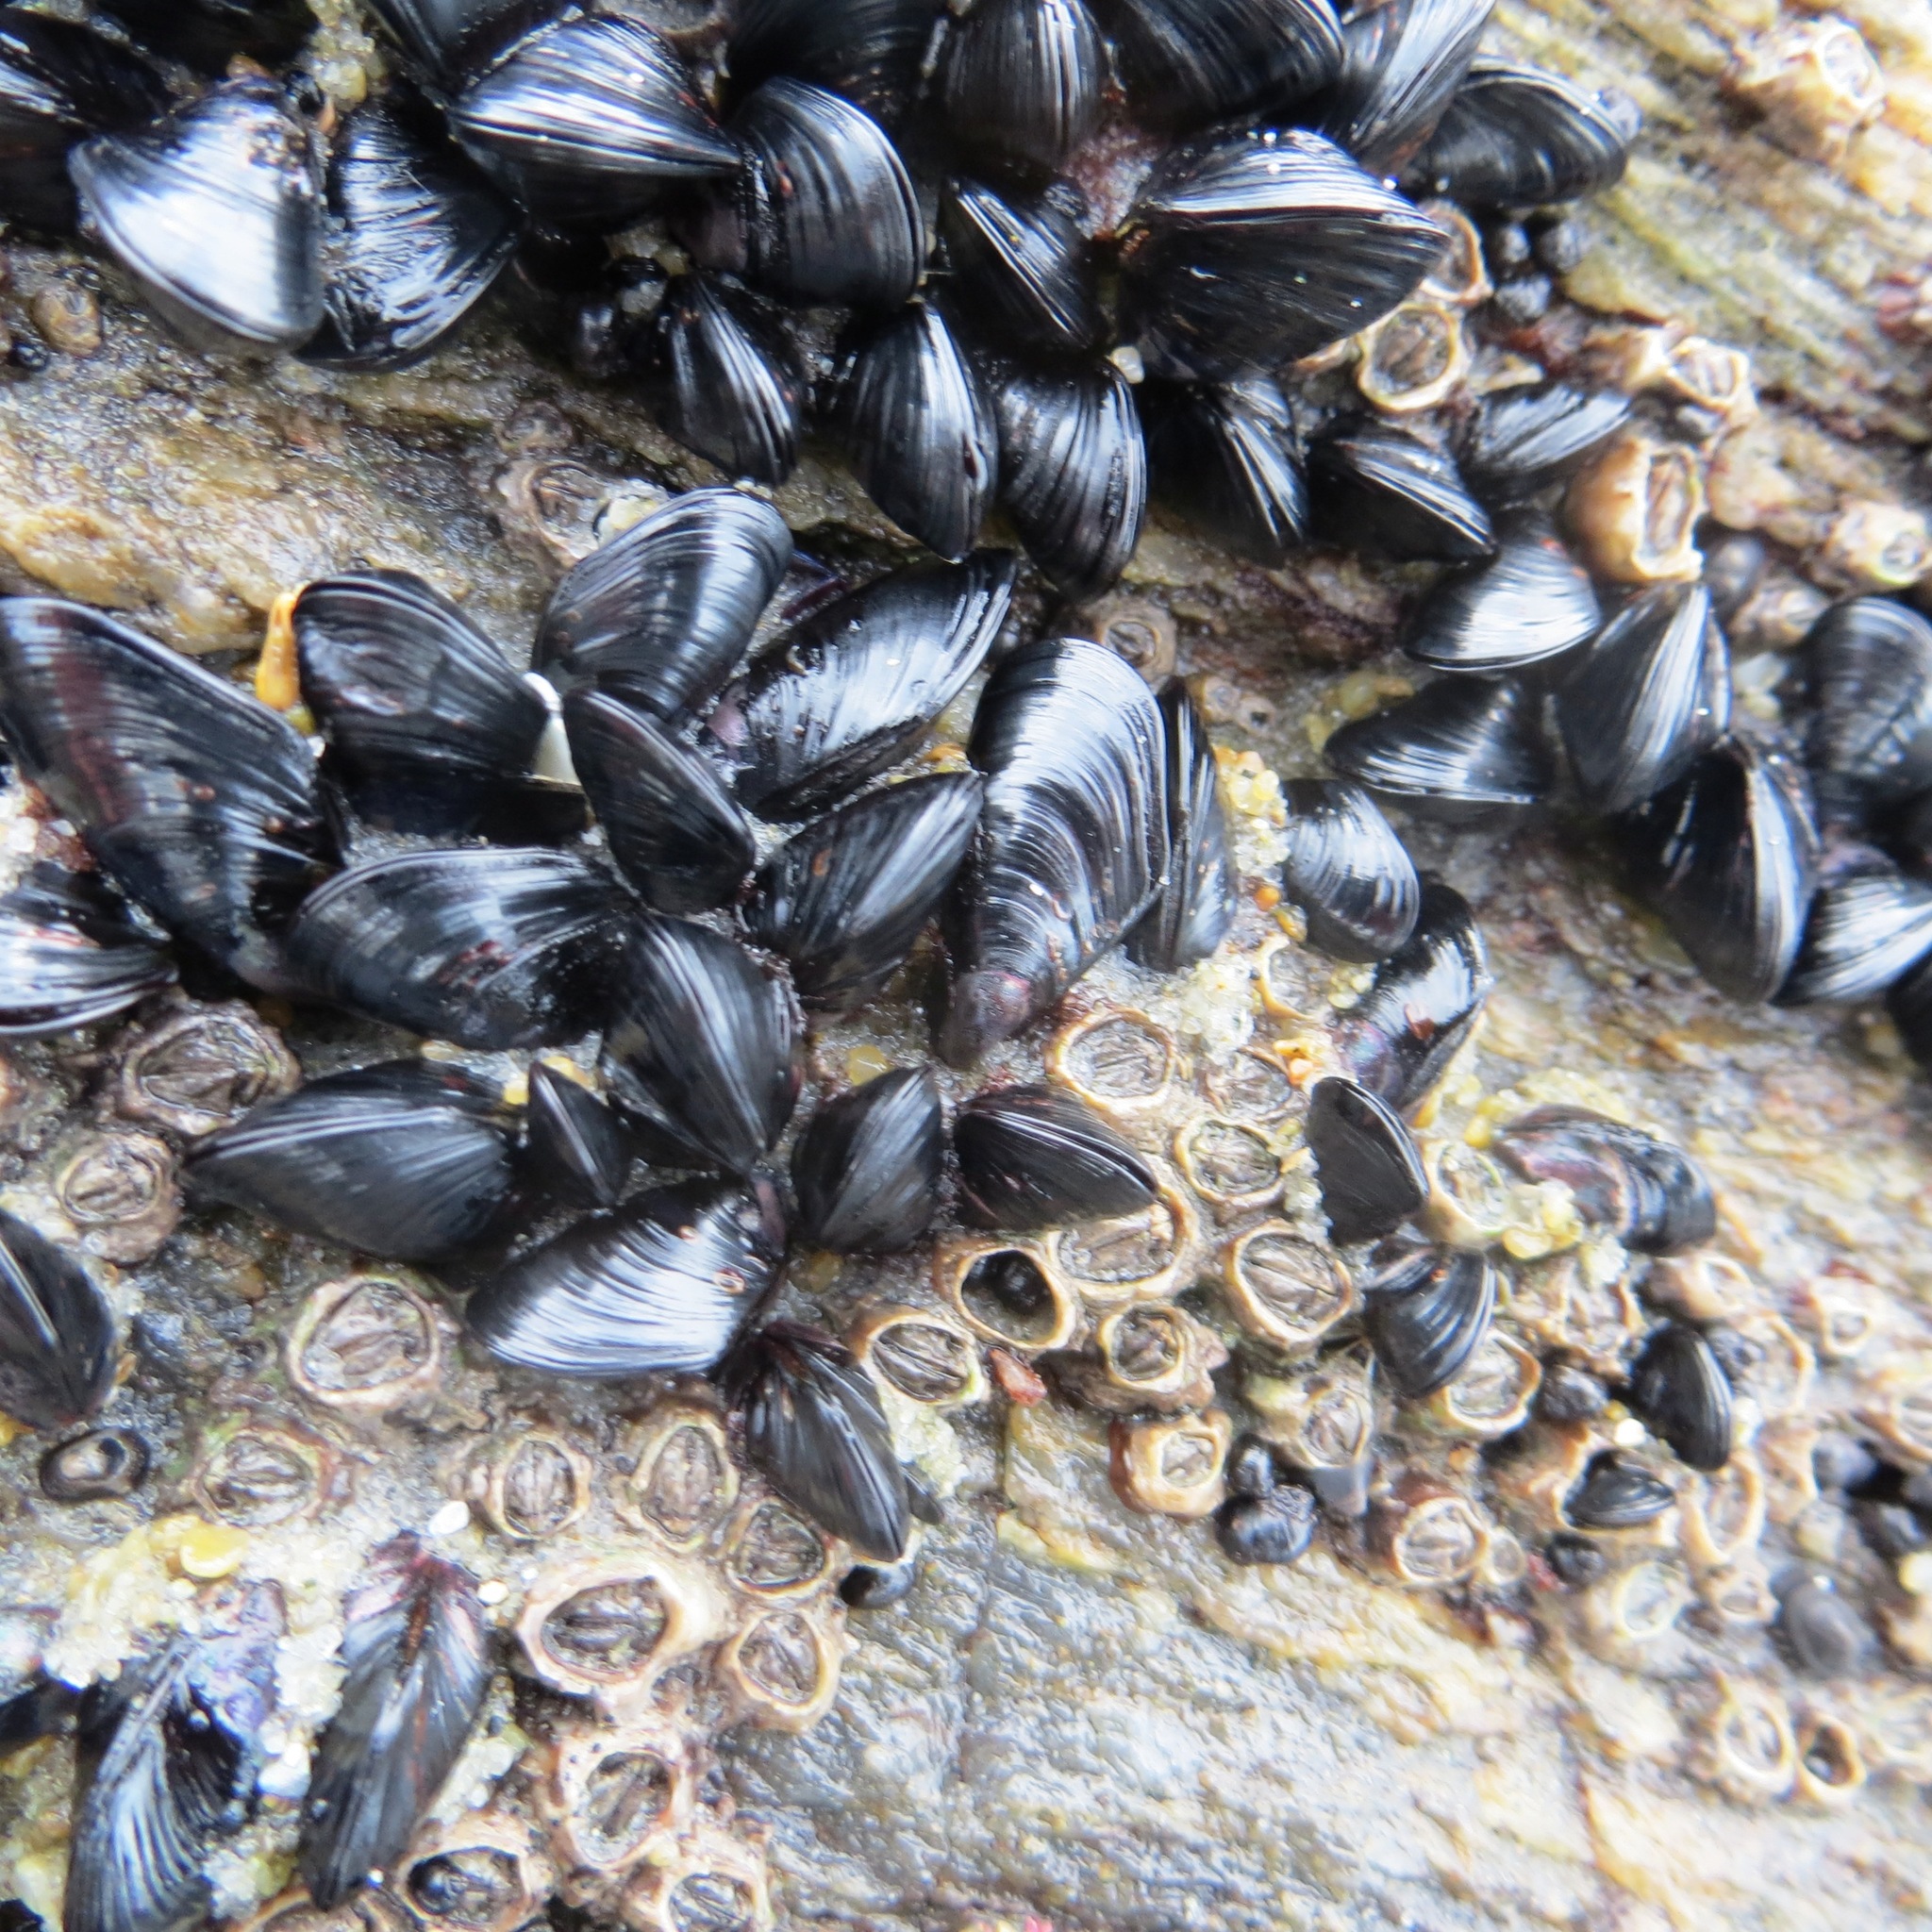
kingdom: Animalia
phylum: Mollusca
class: Bivalvia
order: Mytilida
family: Mytilidae
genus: Xenostrobus
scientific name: Xenostrobus neozelanicus
